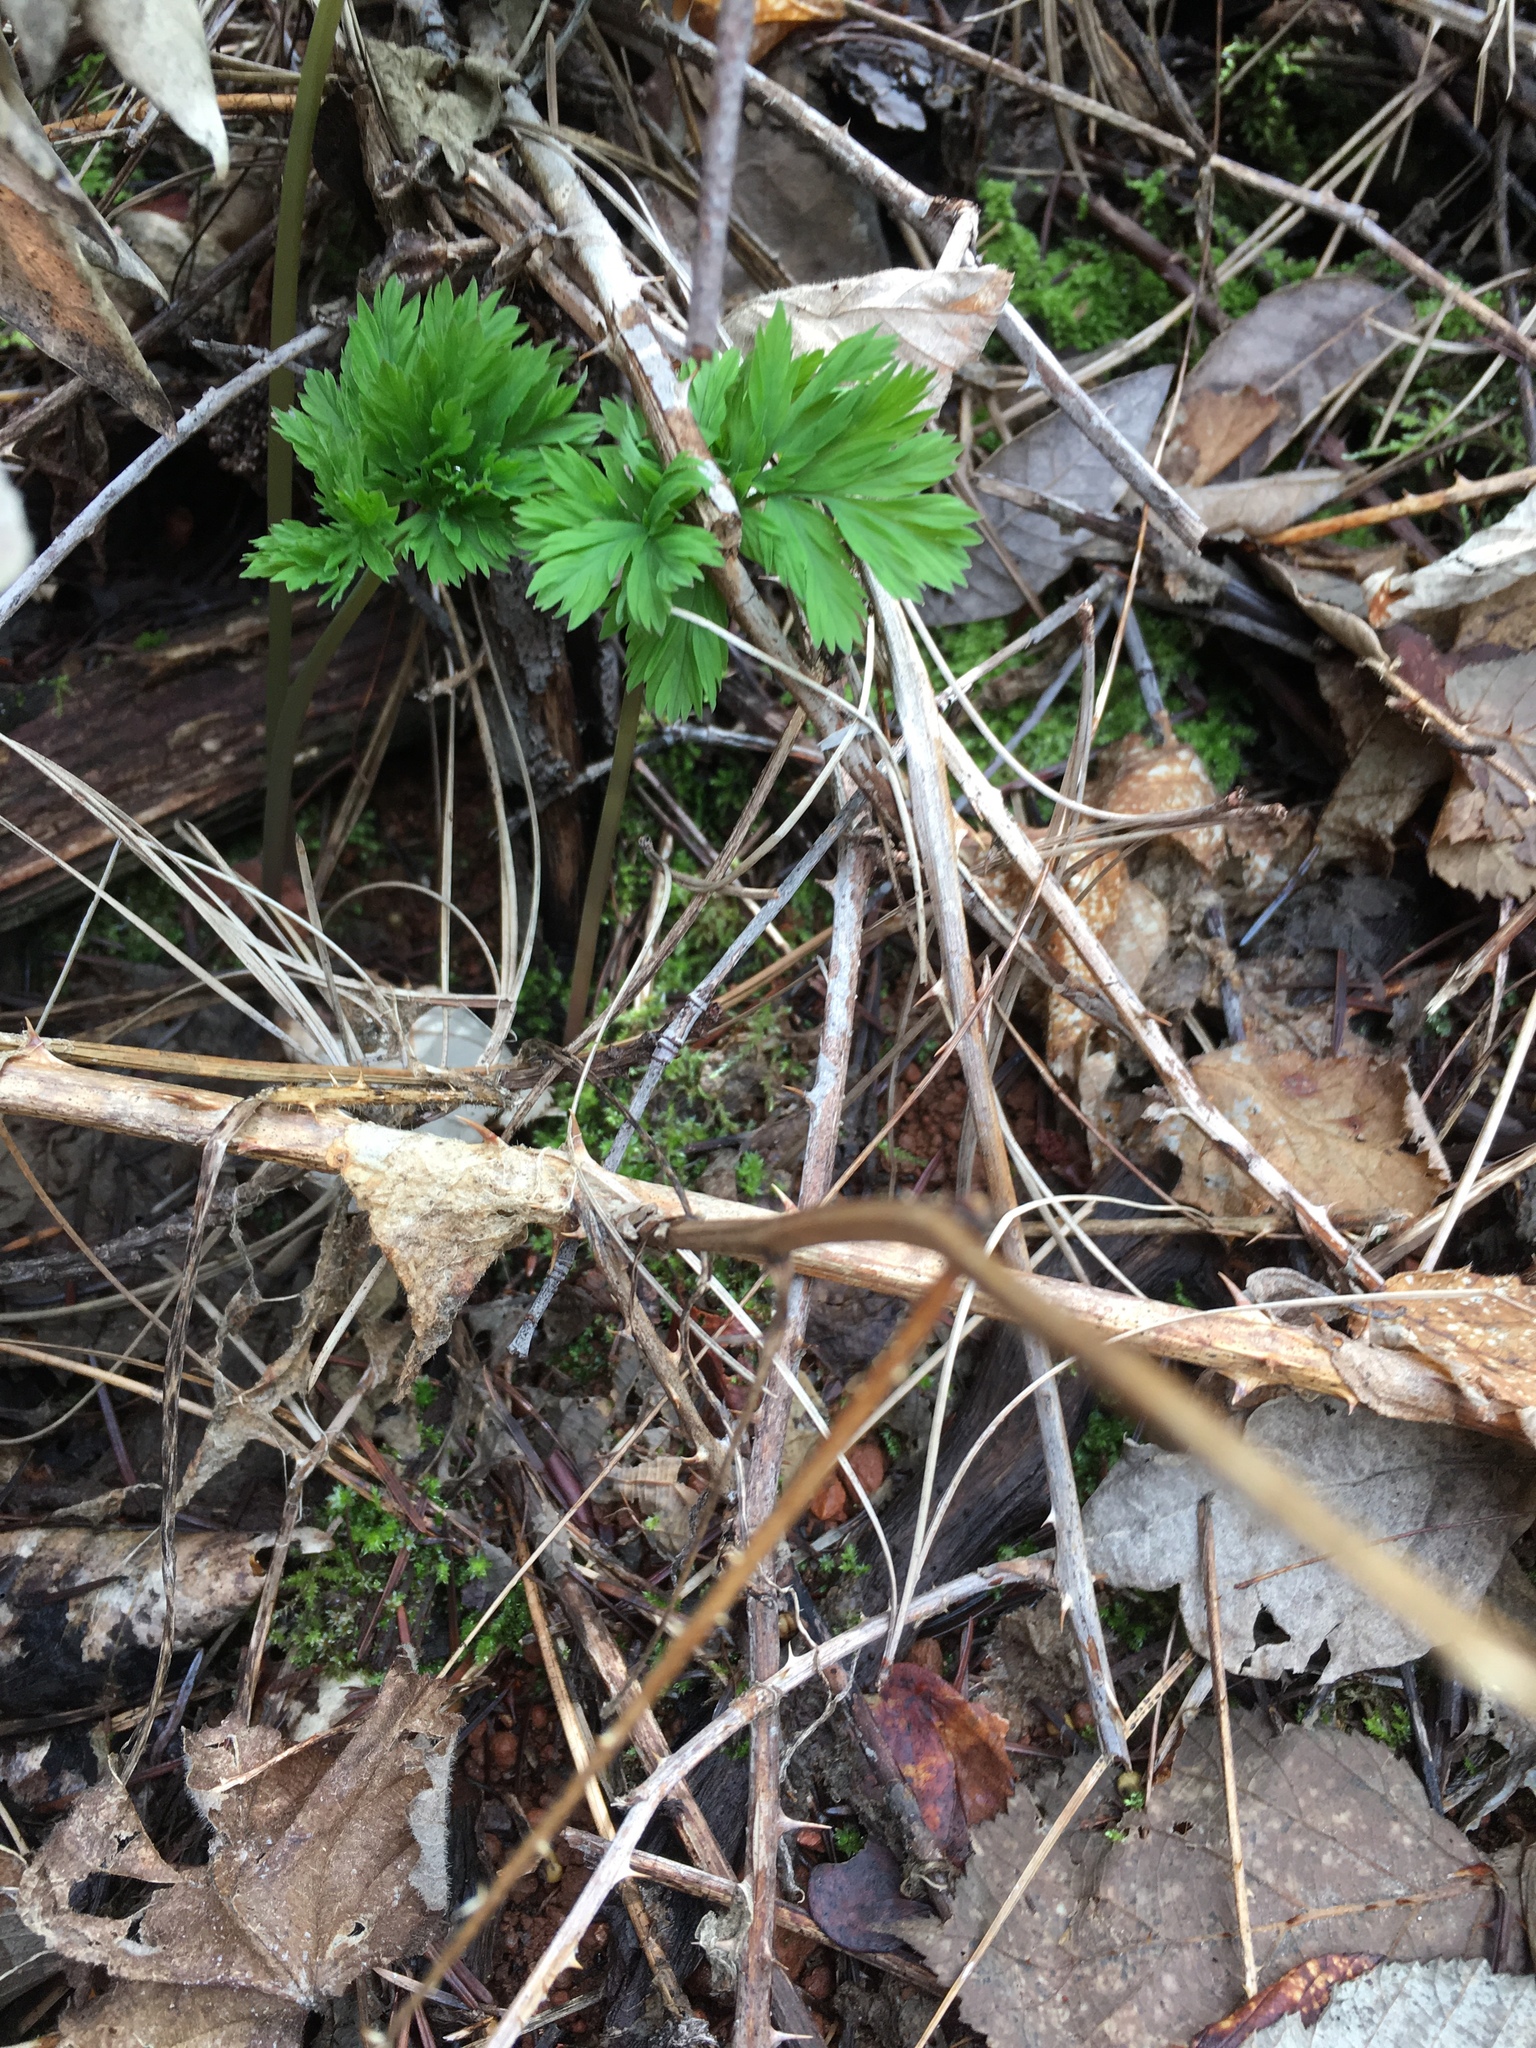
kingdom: Plantae
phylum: Tracheophyta
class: Magnoliopsida
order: Ranunculales
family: Papaveraceae
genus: Dicentra
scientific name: Dicentra formosa
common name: Bleeding-heart
